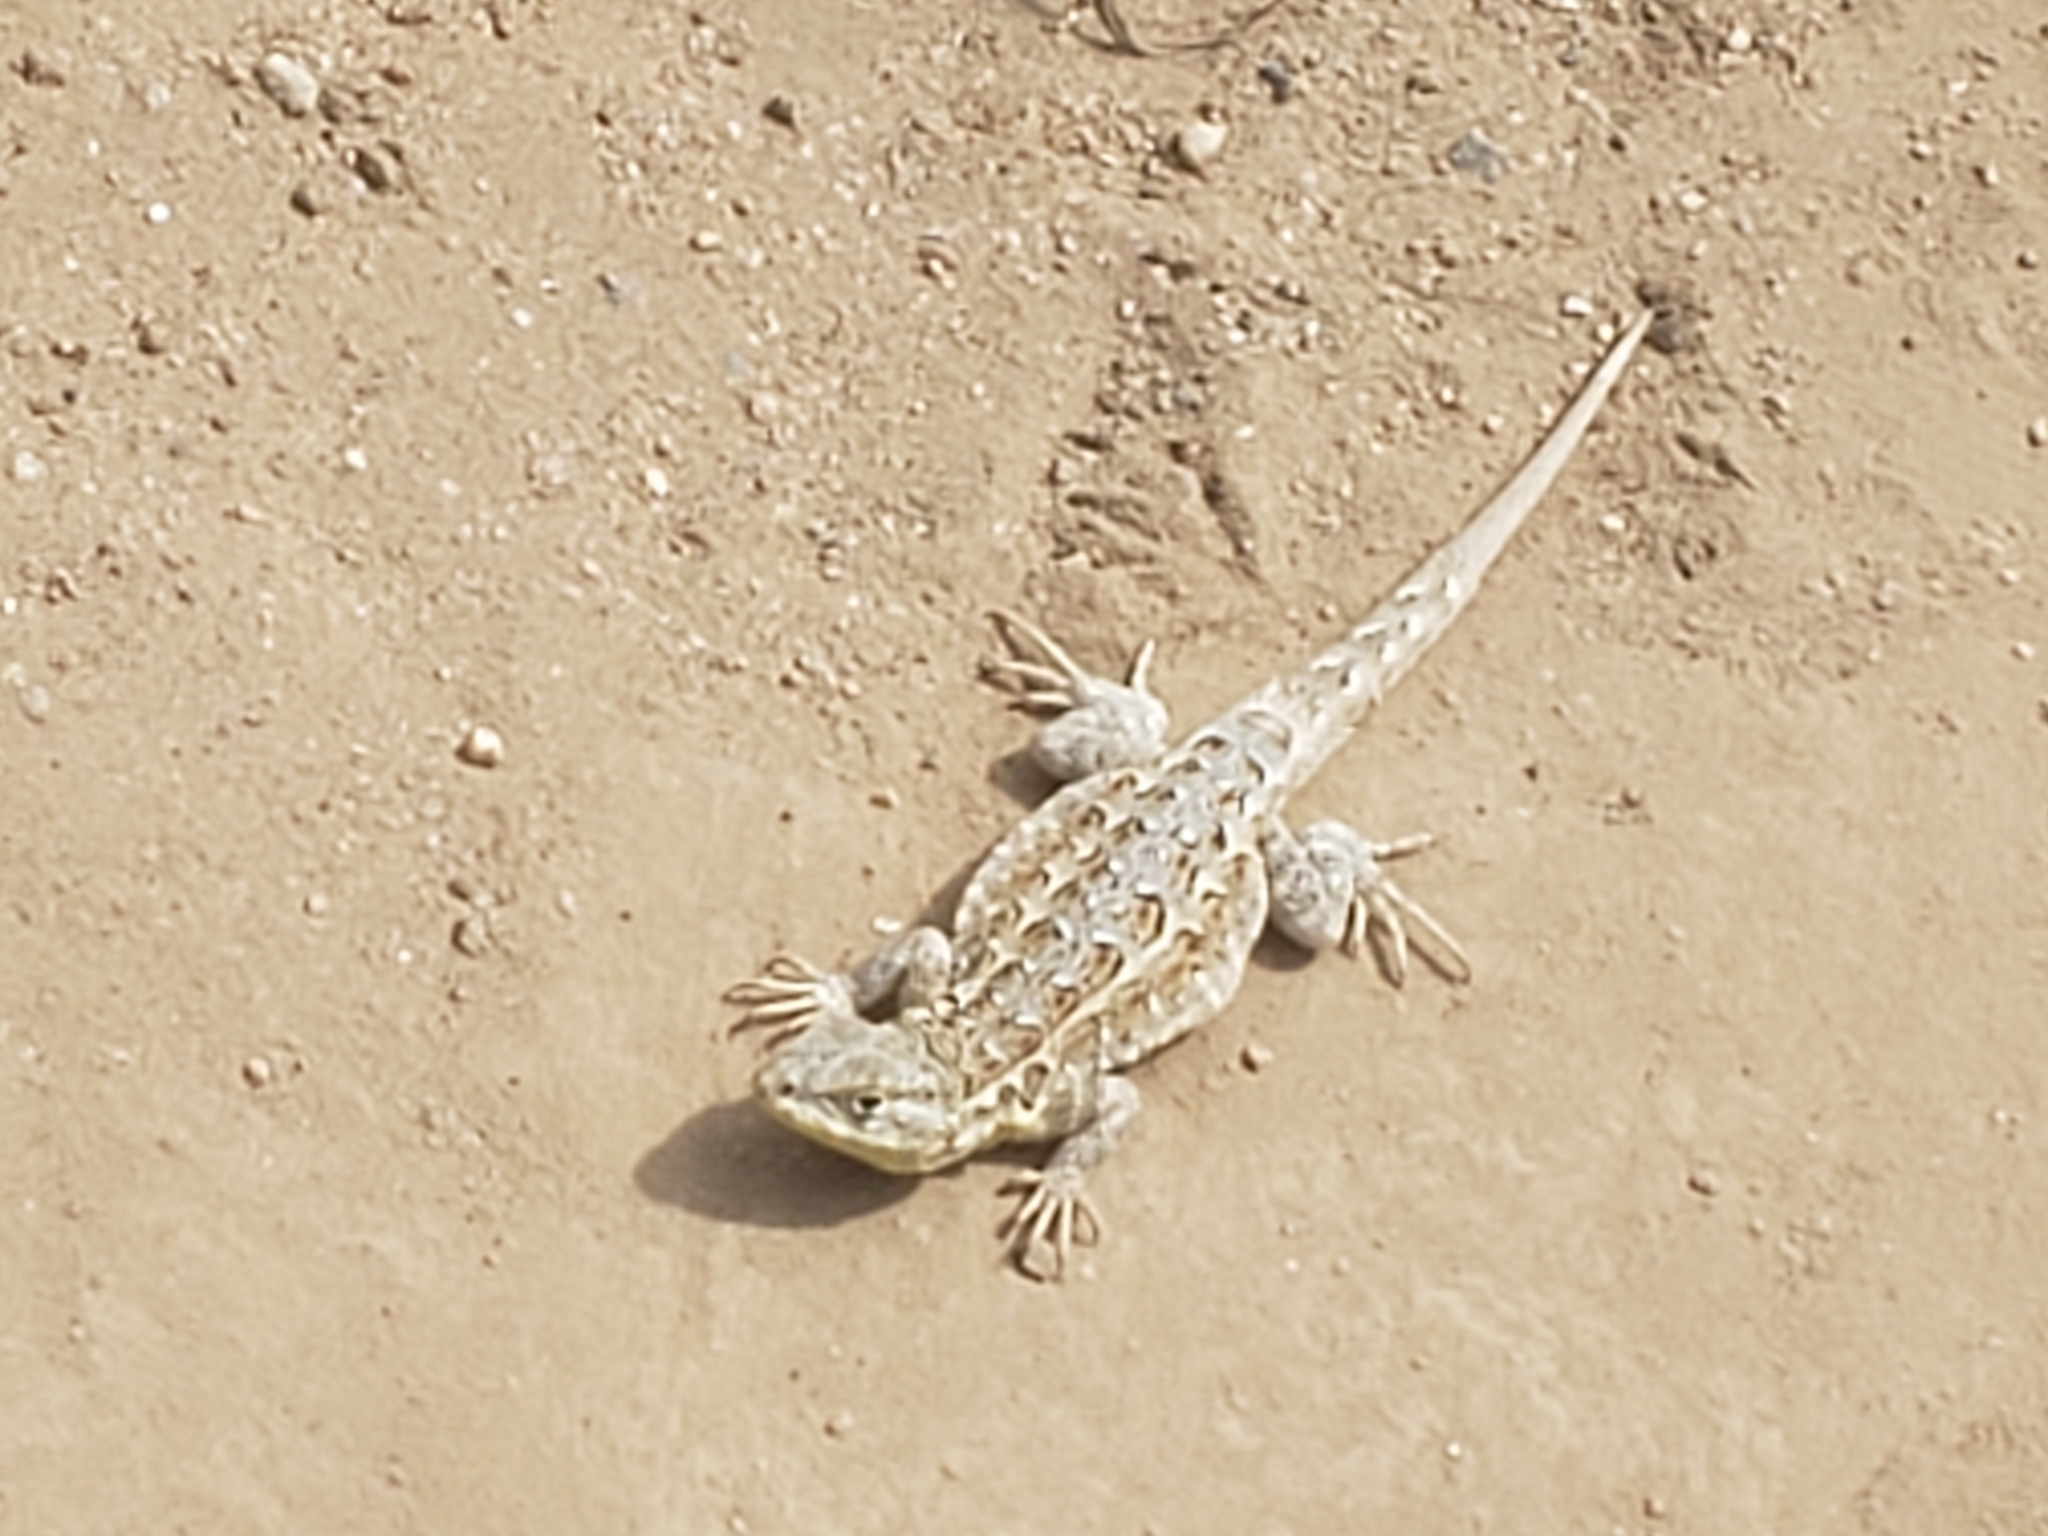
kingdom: Animalia
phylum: Chordata
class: Squamata
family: Phrynosomatidae
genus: Uta
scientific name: Uta stansburiana
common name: Side-blotched lizard
